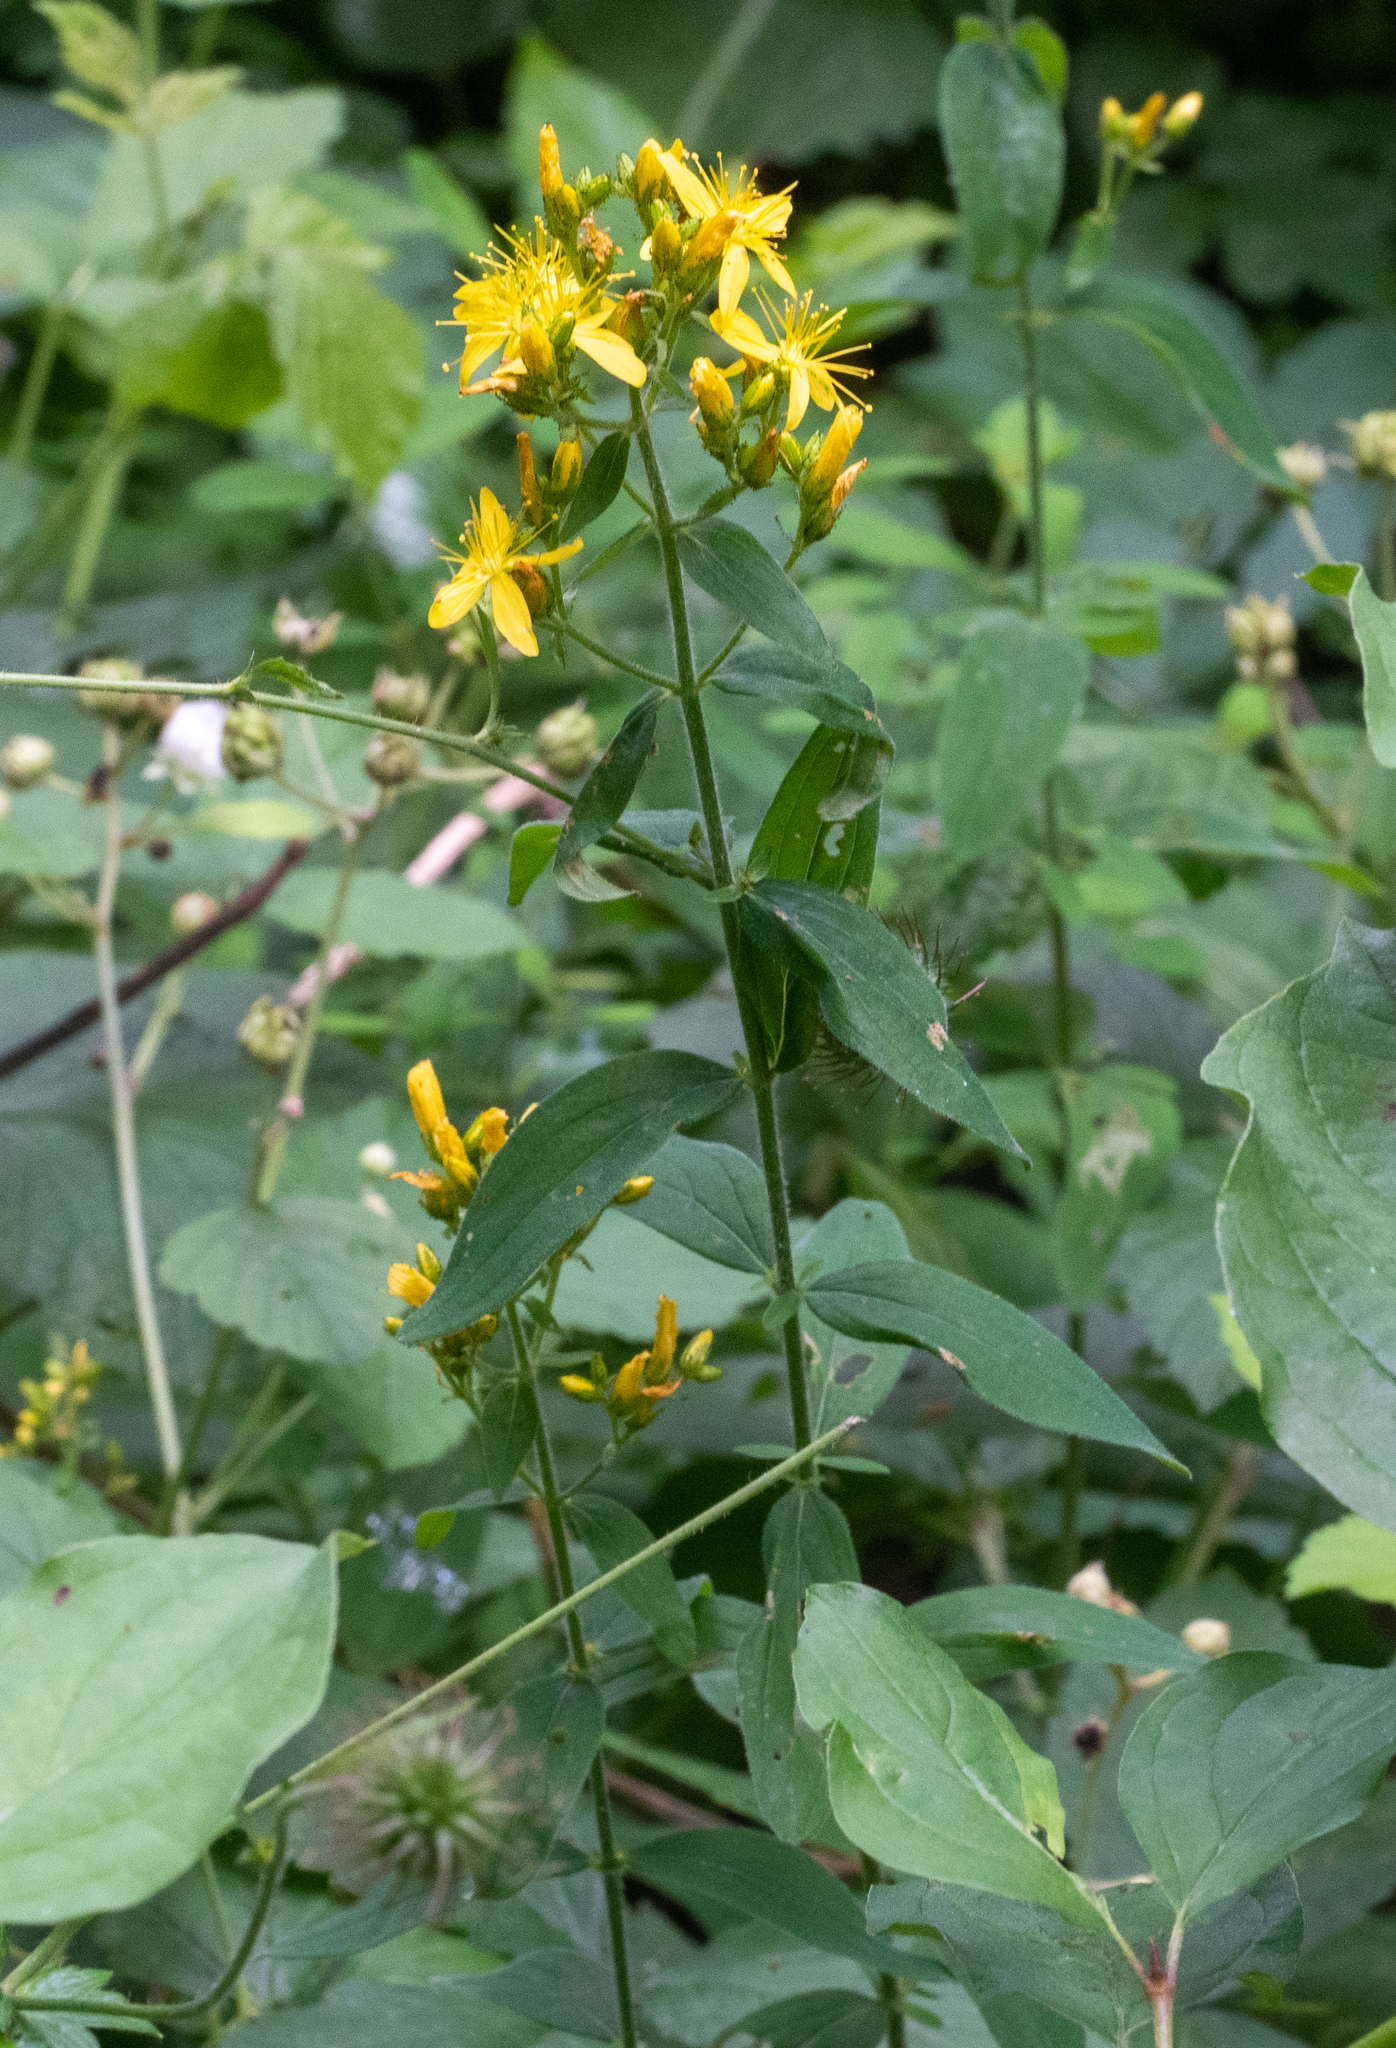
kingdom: Plantae
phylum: Tracheophyta
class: Magnoliopsida
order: Malpighiales
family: Hypericaceae
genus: Hypericum
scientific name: Hypericum hirsutum
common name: Hairy st. john's-wort
